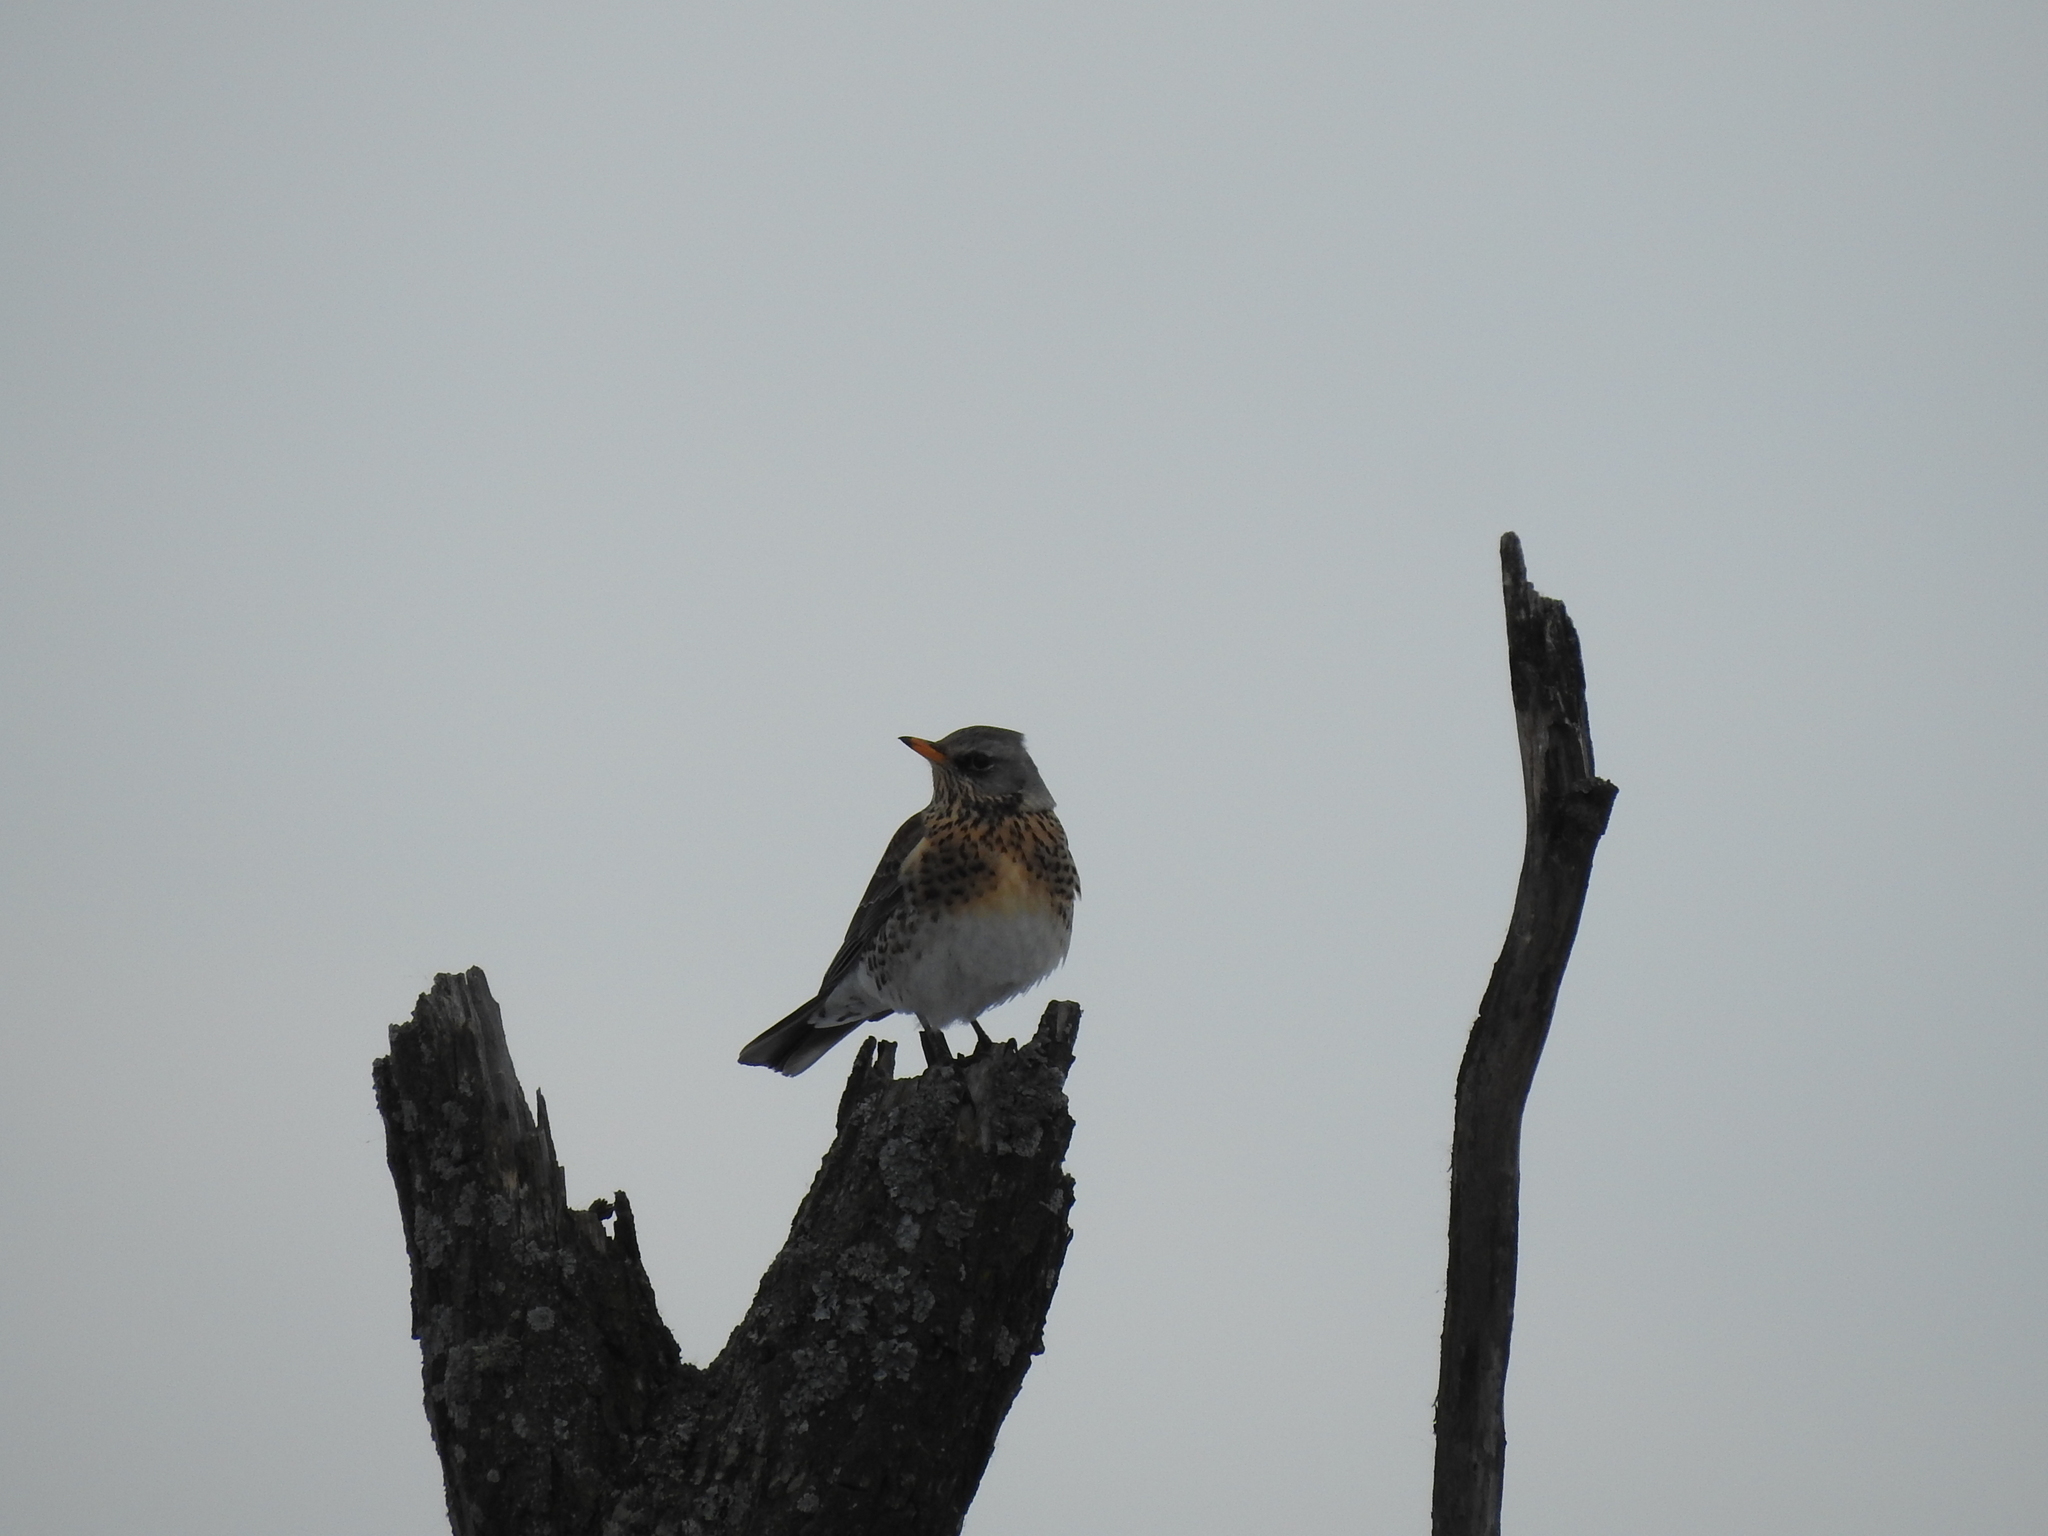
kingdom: Animalia
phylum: Chordata
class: Aves
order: Passeriformes
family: Turdidae
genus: Turdus
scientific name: Turdus pilaris
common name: Fieldfare
